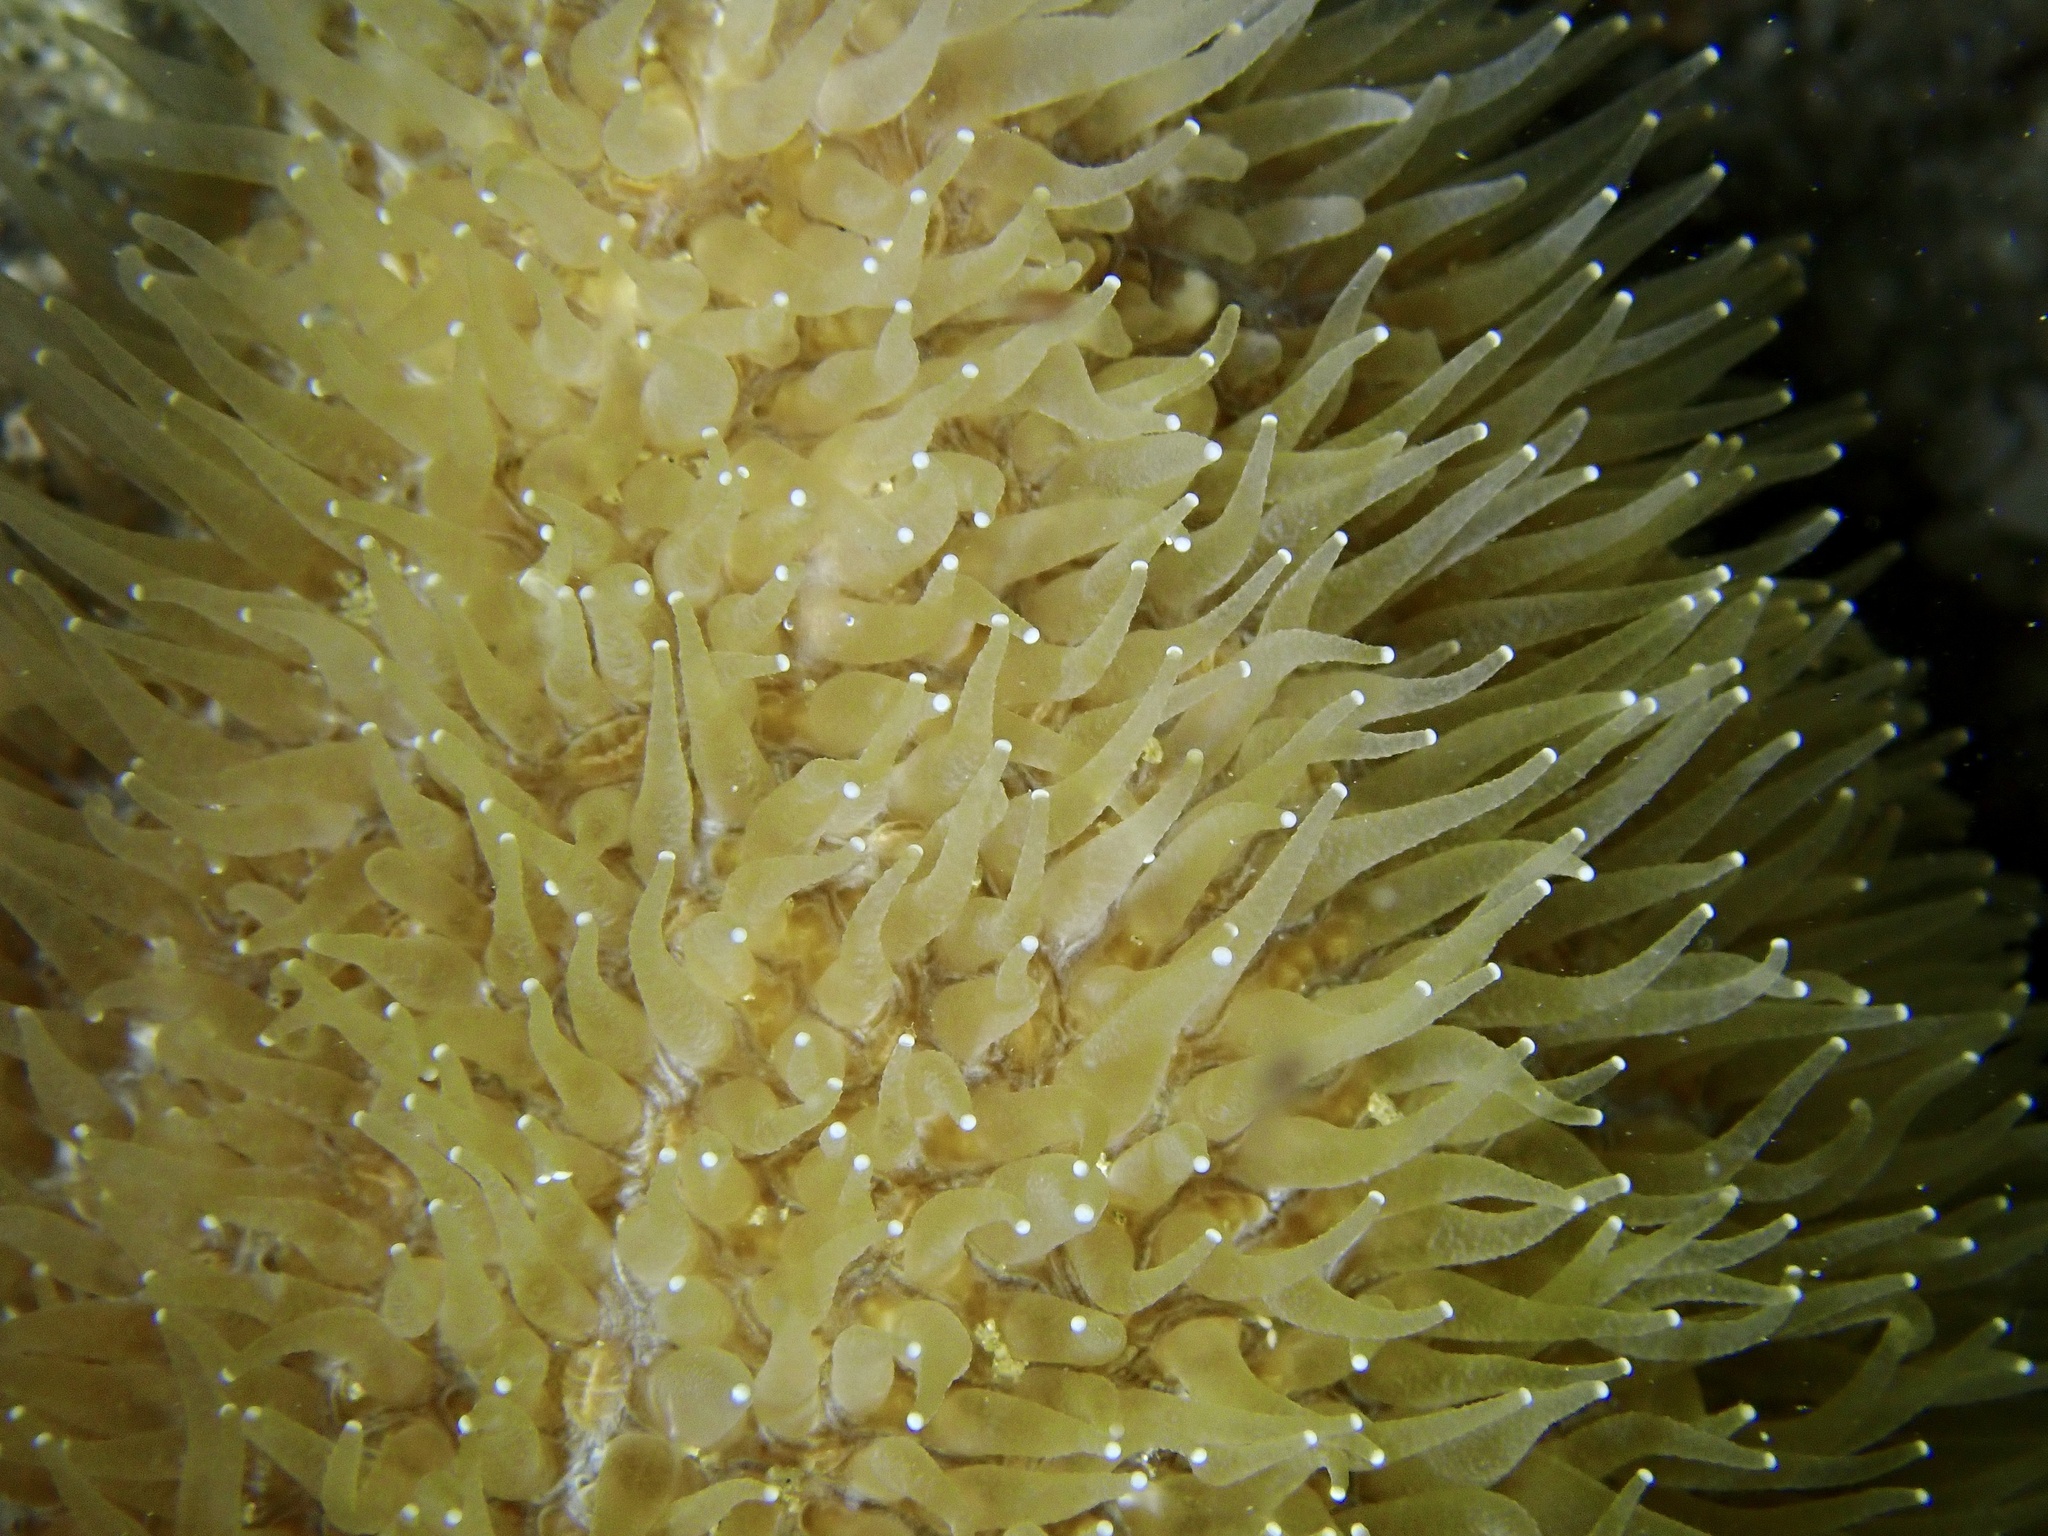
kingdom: Animalia
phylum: Cnidaria
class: Anthozoa
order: Scleractinia
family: Fungiidae
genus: Polyphyllia
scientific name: Polyphyllia talpina
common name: Joker's boomerang coral
